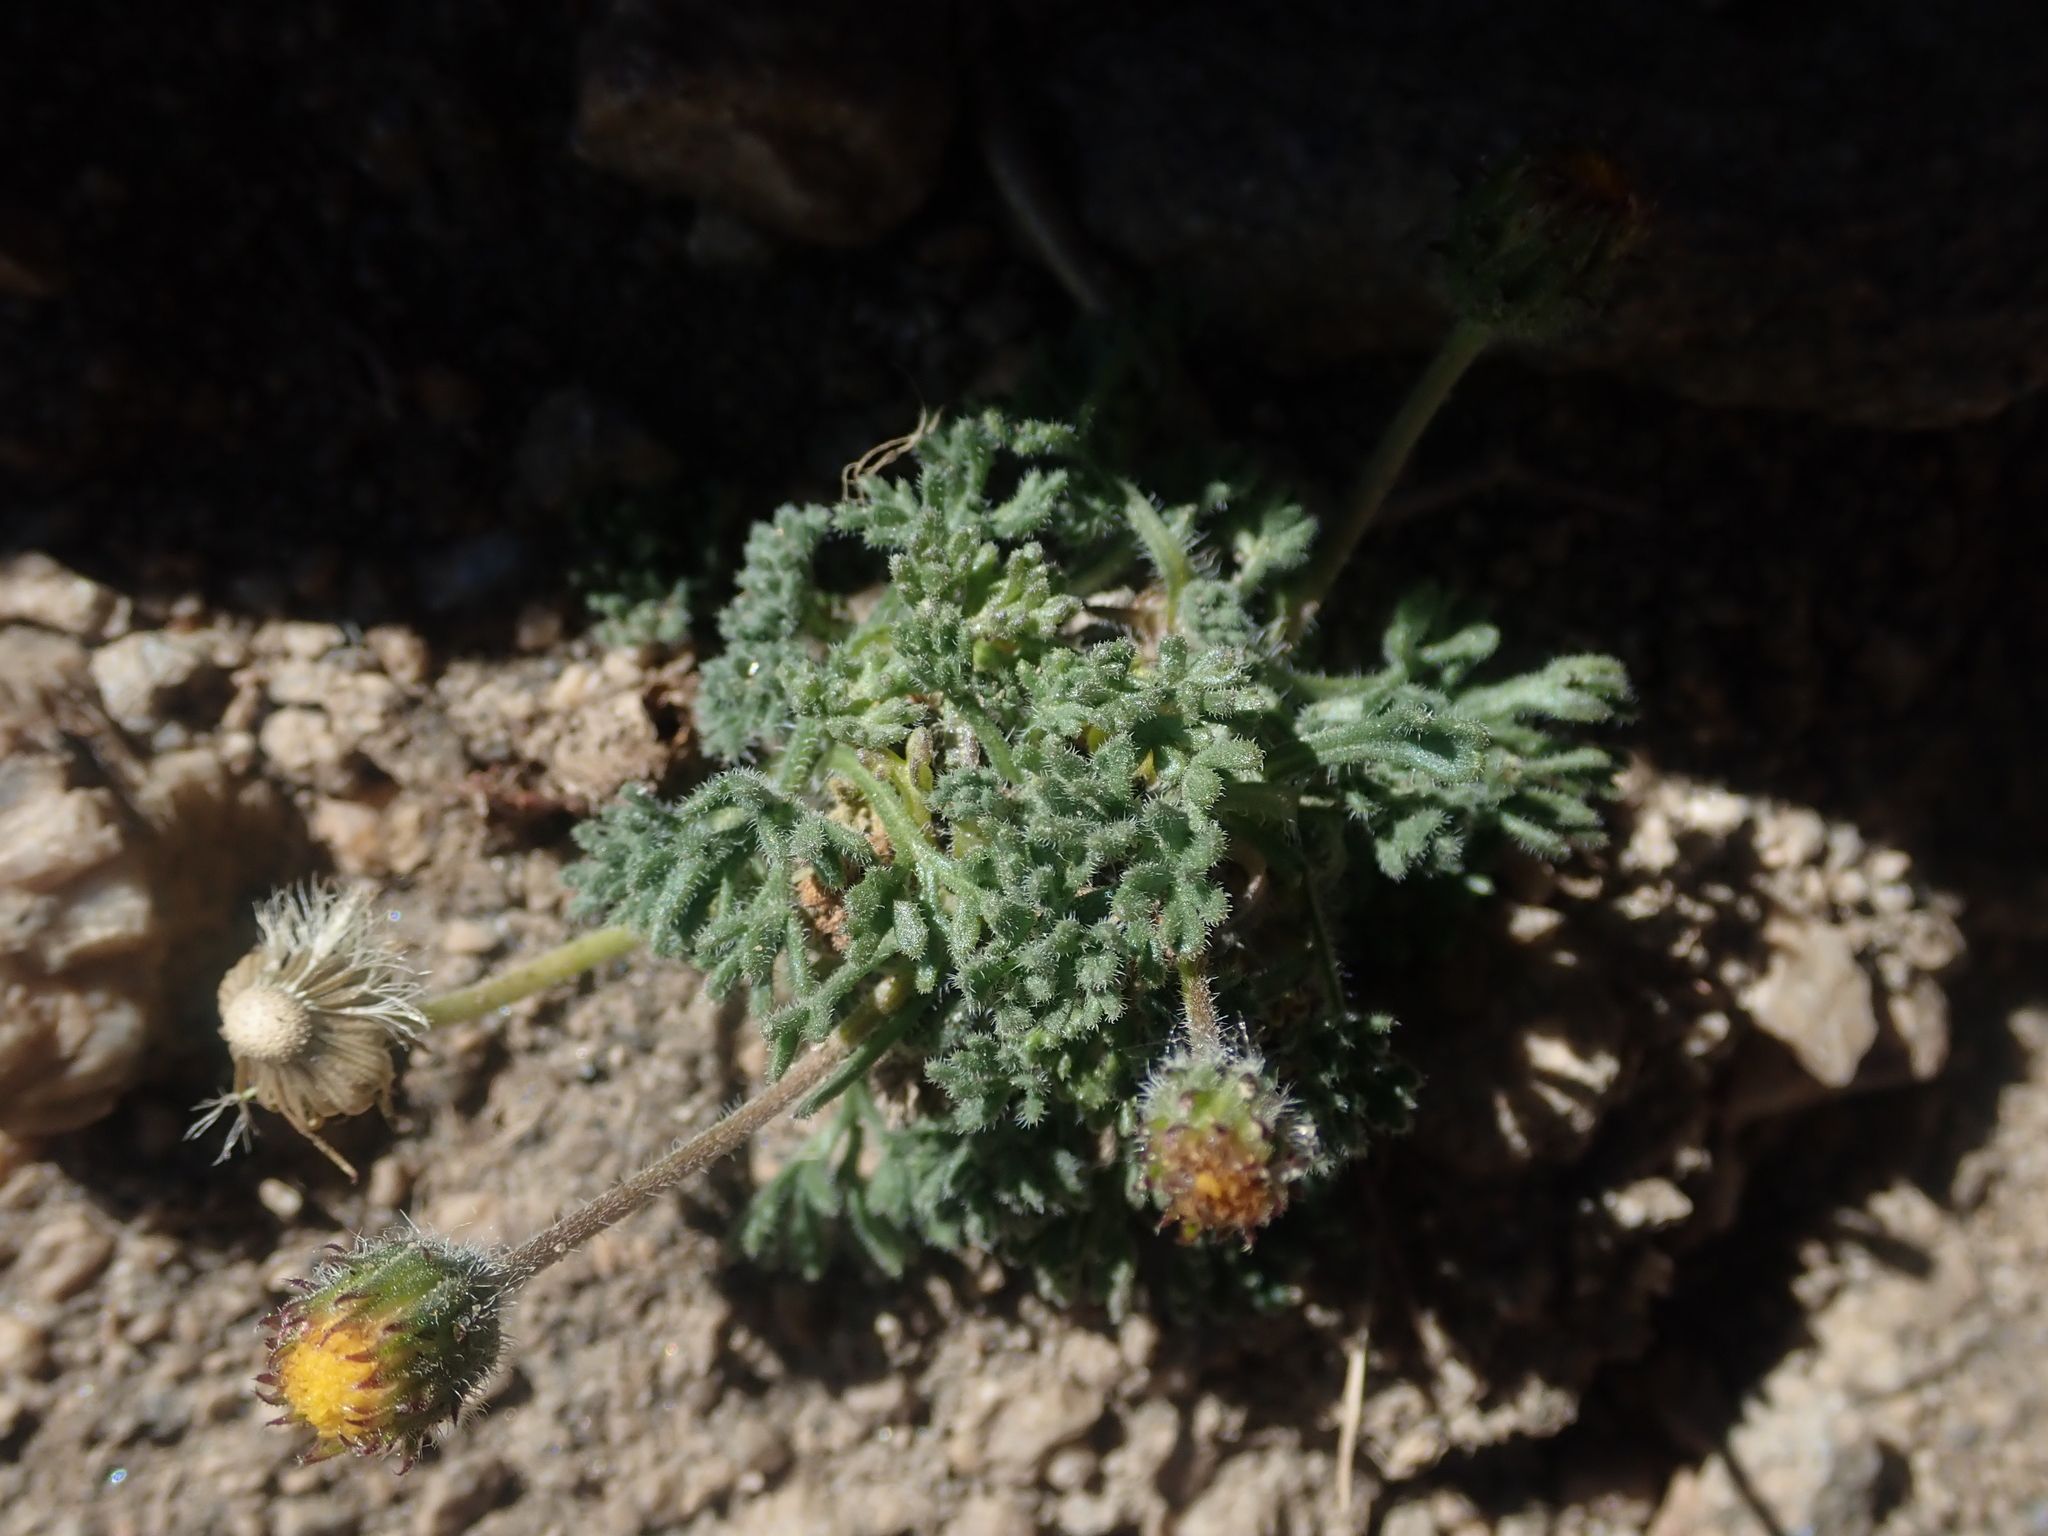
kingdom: Plantae
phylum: Tracheophyta
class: Magnoliopsida
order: Asterales
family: Asteraceae
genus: Erigeron
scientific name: Erigeron compositus
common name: Dwarf mountain fleabane
